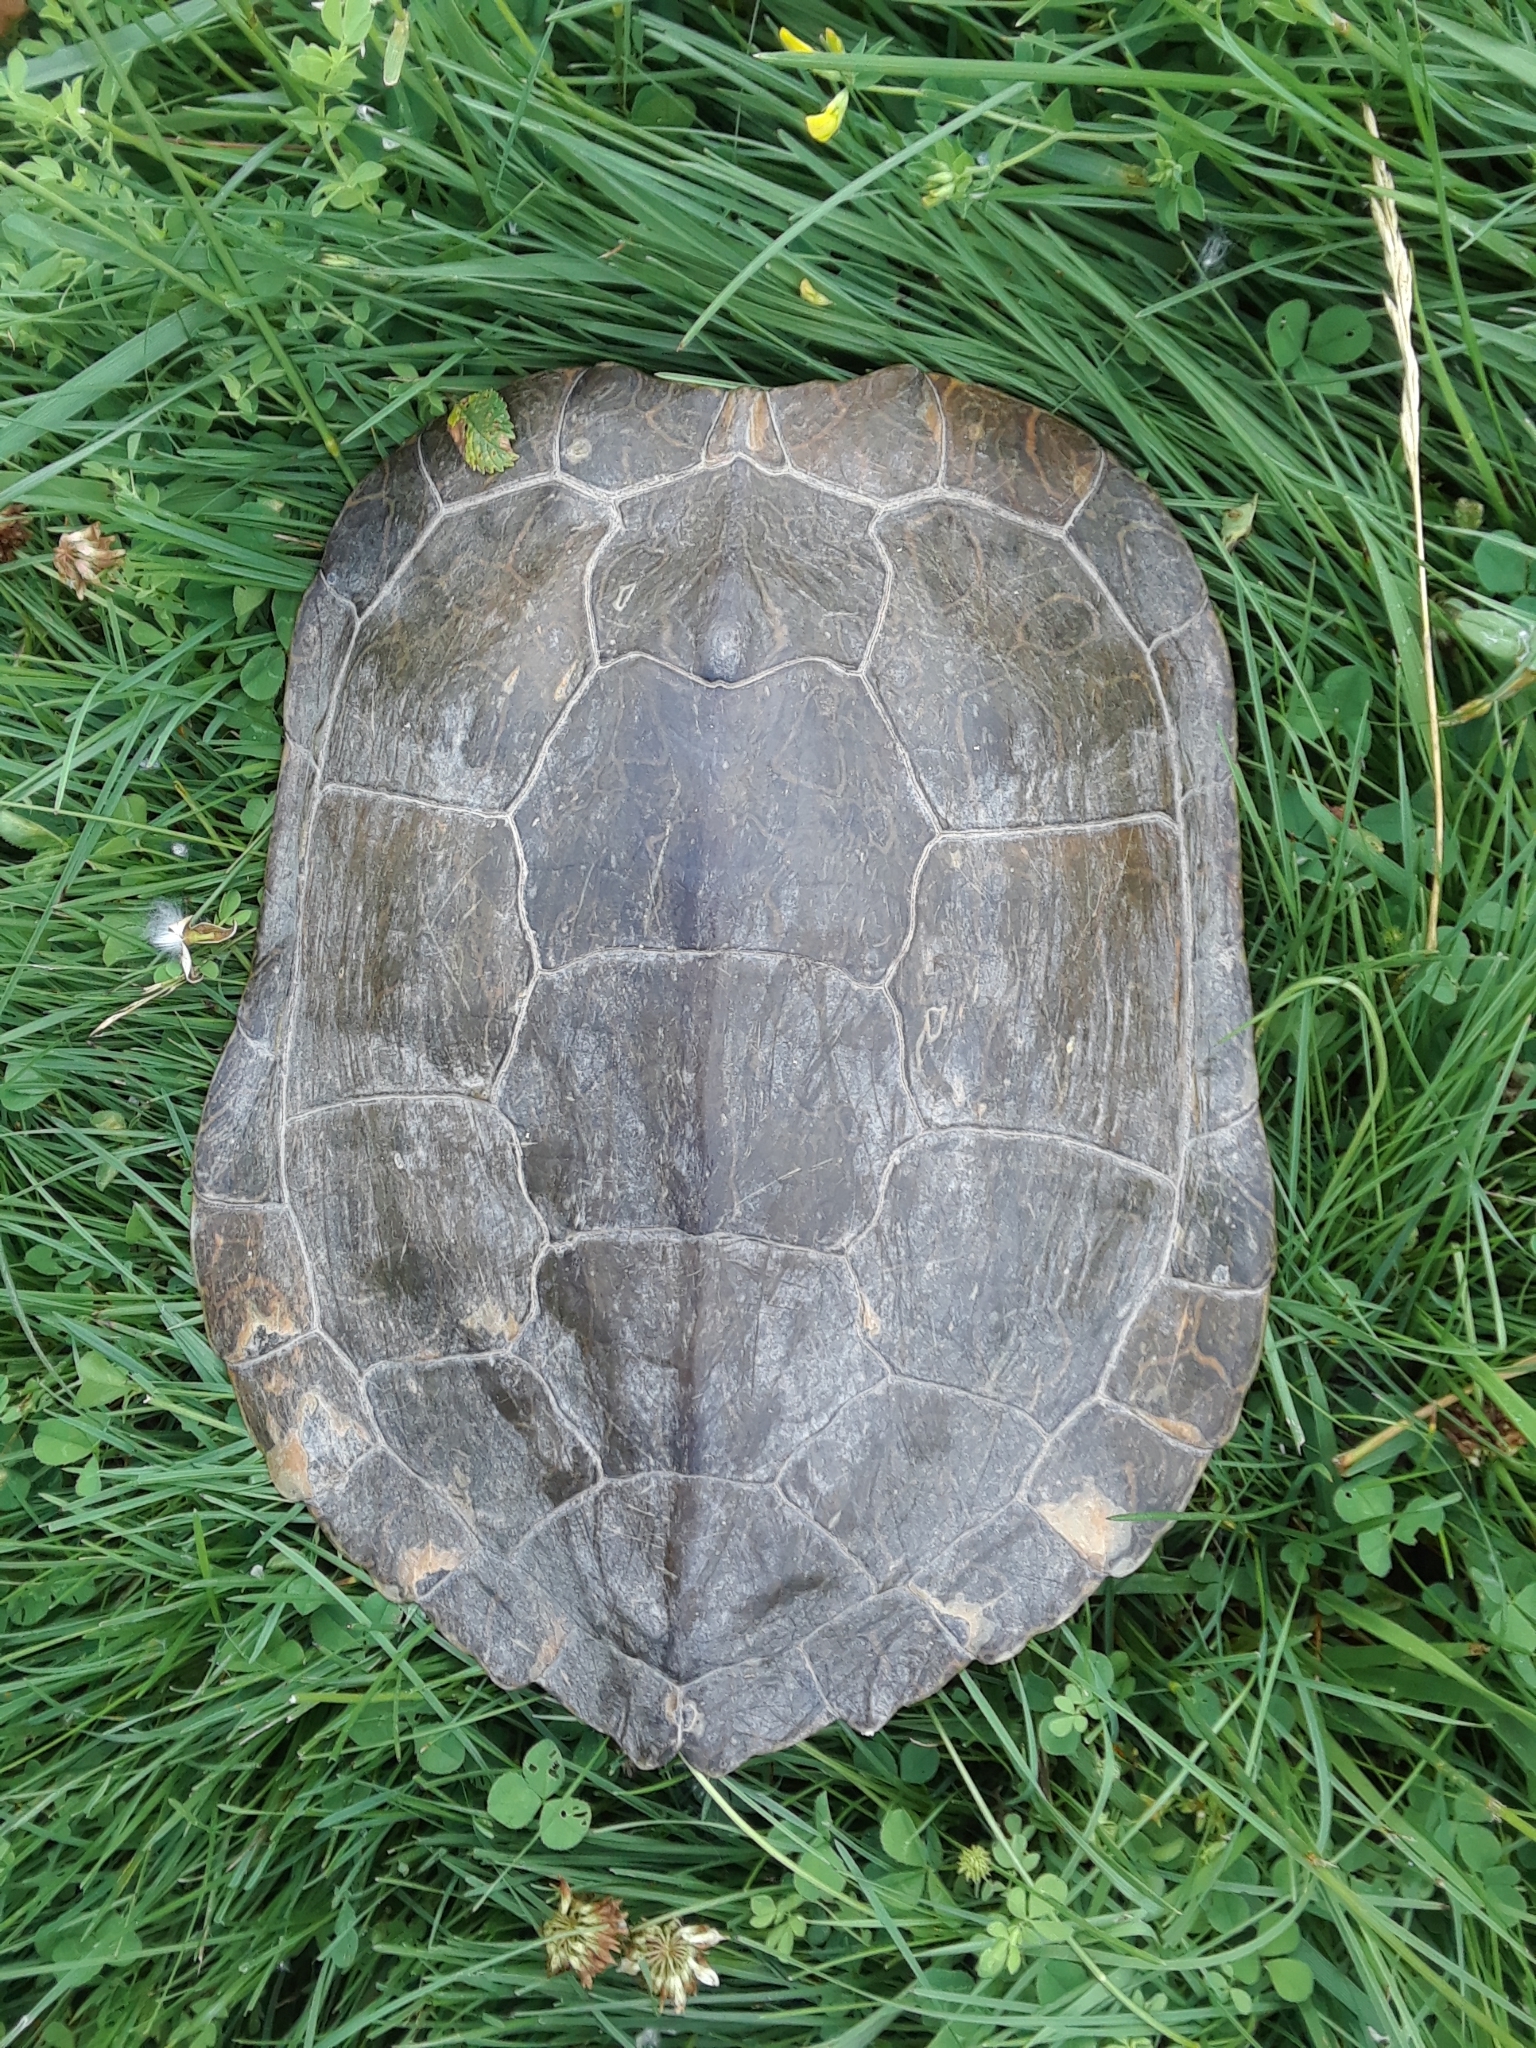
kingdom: Animalia
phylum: Chordata
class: Testudines
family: Emydidae
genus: Graptemys
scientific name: Graptemys geographica
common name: Common map turtle
